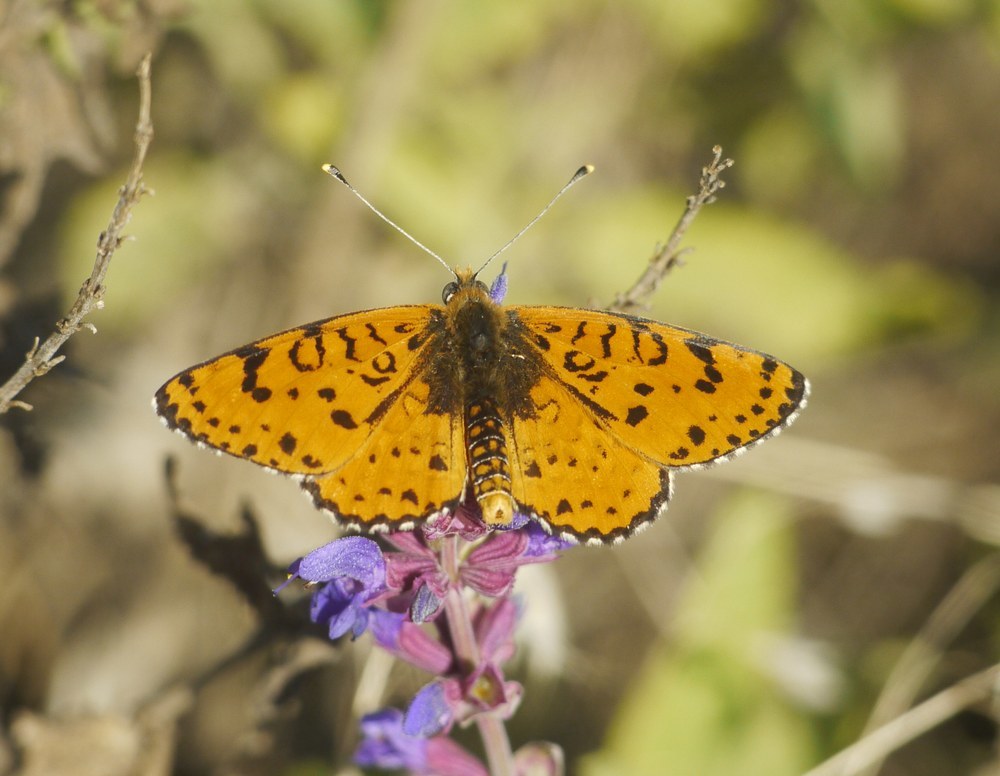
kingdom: Animalia
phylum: Arthropoda
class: Insecta
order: Lepidoptera
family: Nymphalidae
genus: Melitaea
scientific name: Melitaea didyma
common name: Spotted fritillary
